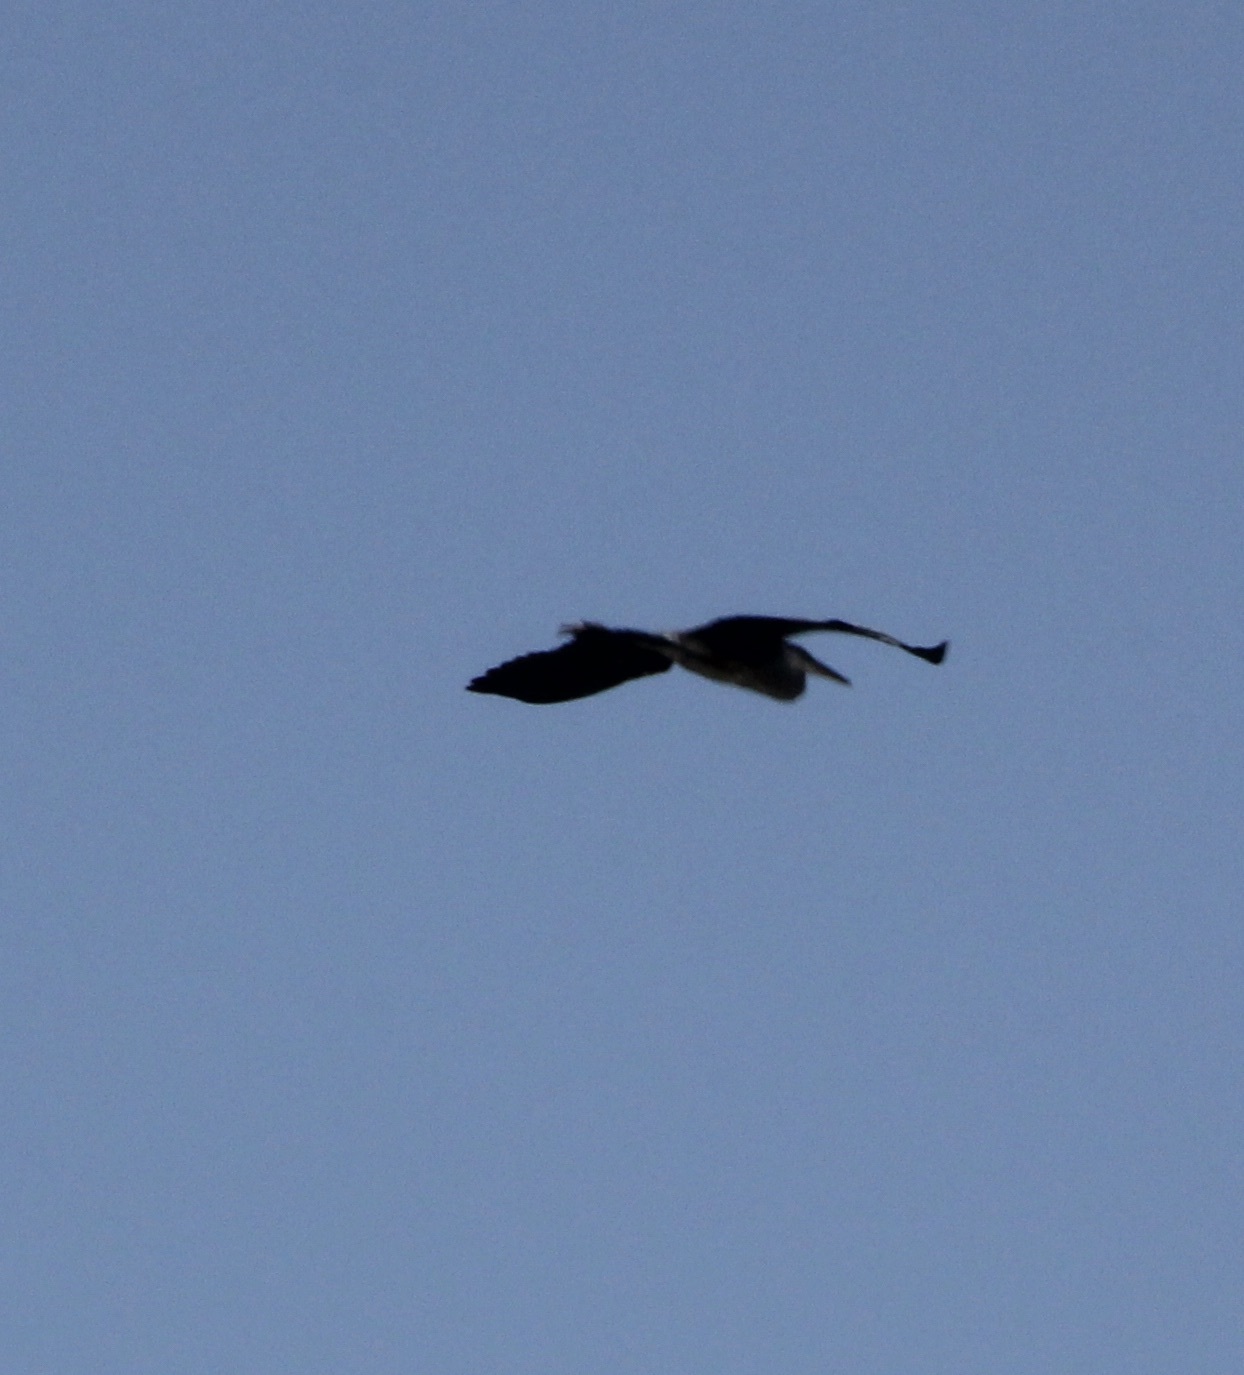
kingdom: Animalia
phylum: Chordata
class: Aves
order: Pelecaniformes
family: Ardeidae
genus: Ardea
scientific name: Ardea herodias
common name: Great blue heron
